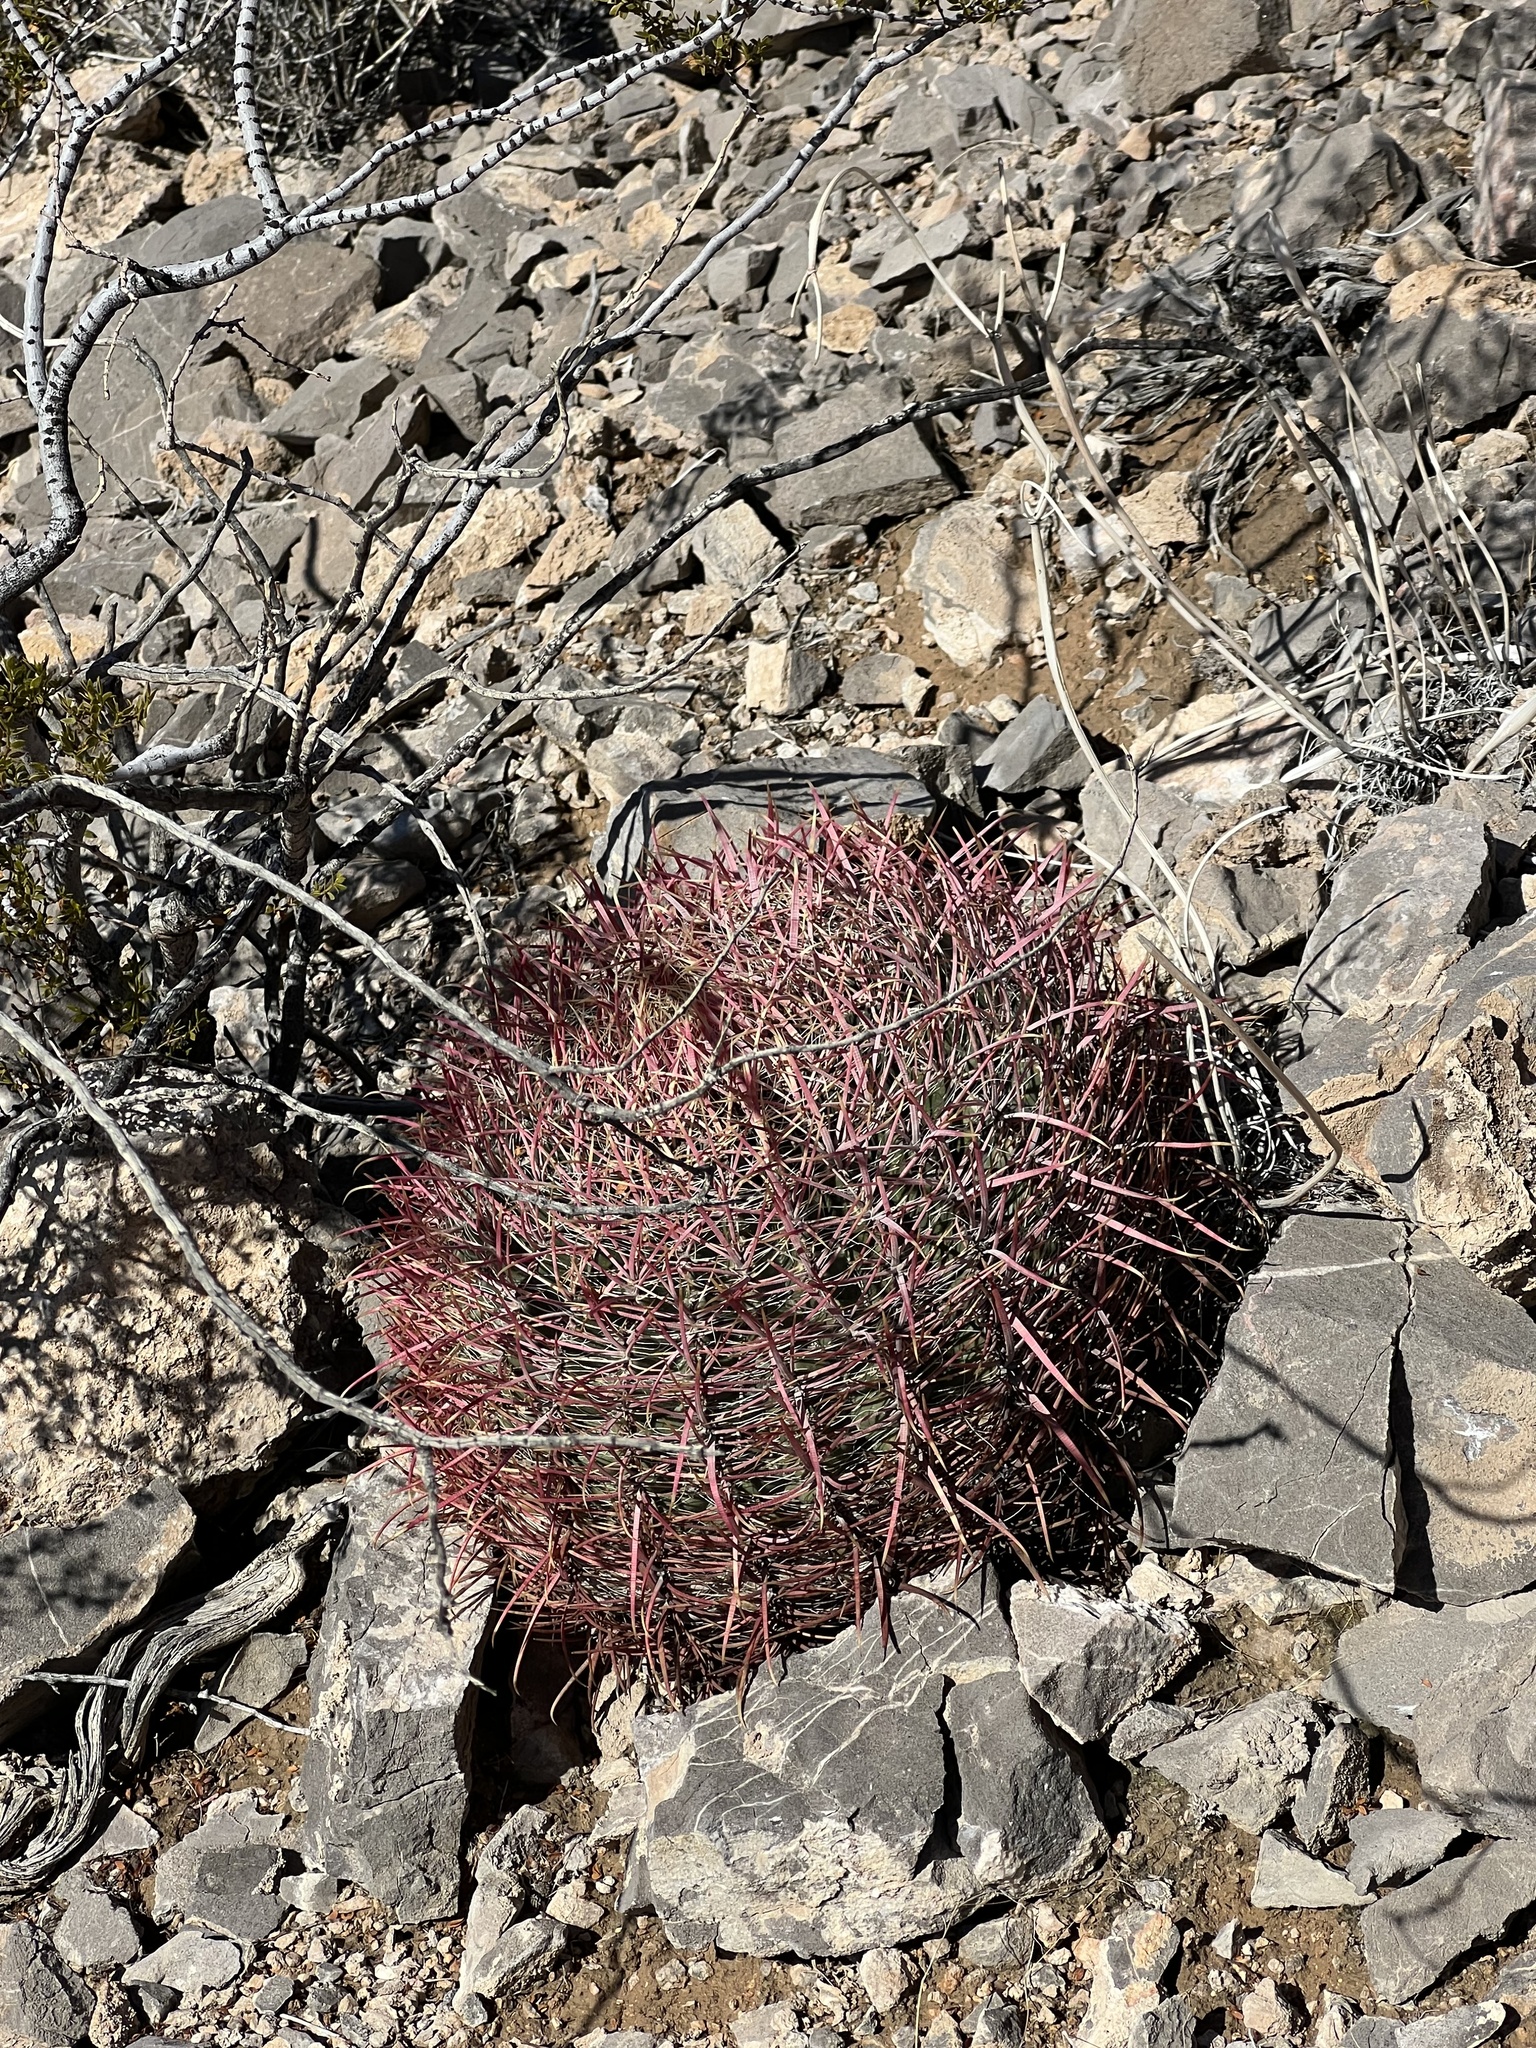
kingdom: Plantae
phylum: Tracheophyta
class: Magnoliopsida
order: Caryophyllales
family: Cactaceae
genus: Ferocactus
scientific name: Ferocactus cylindraceus
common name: California barrel cactus
